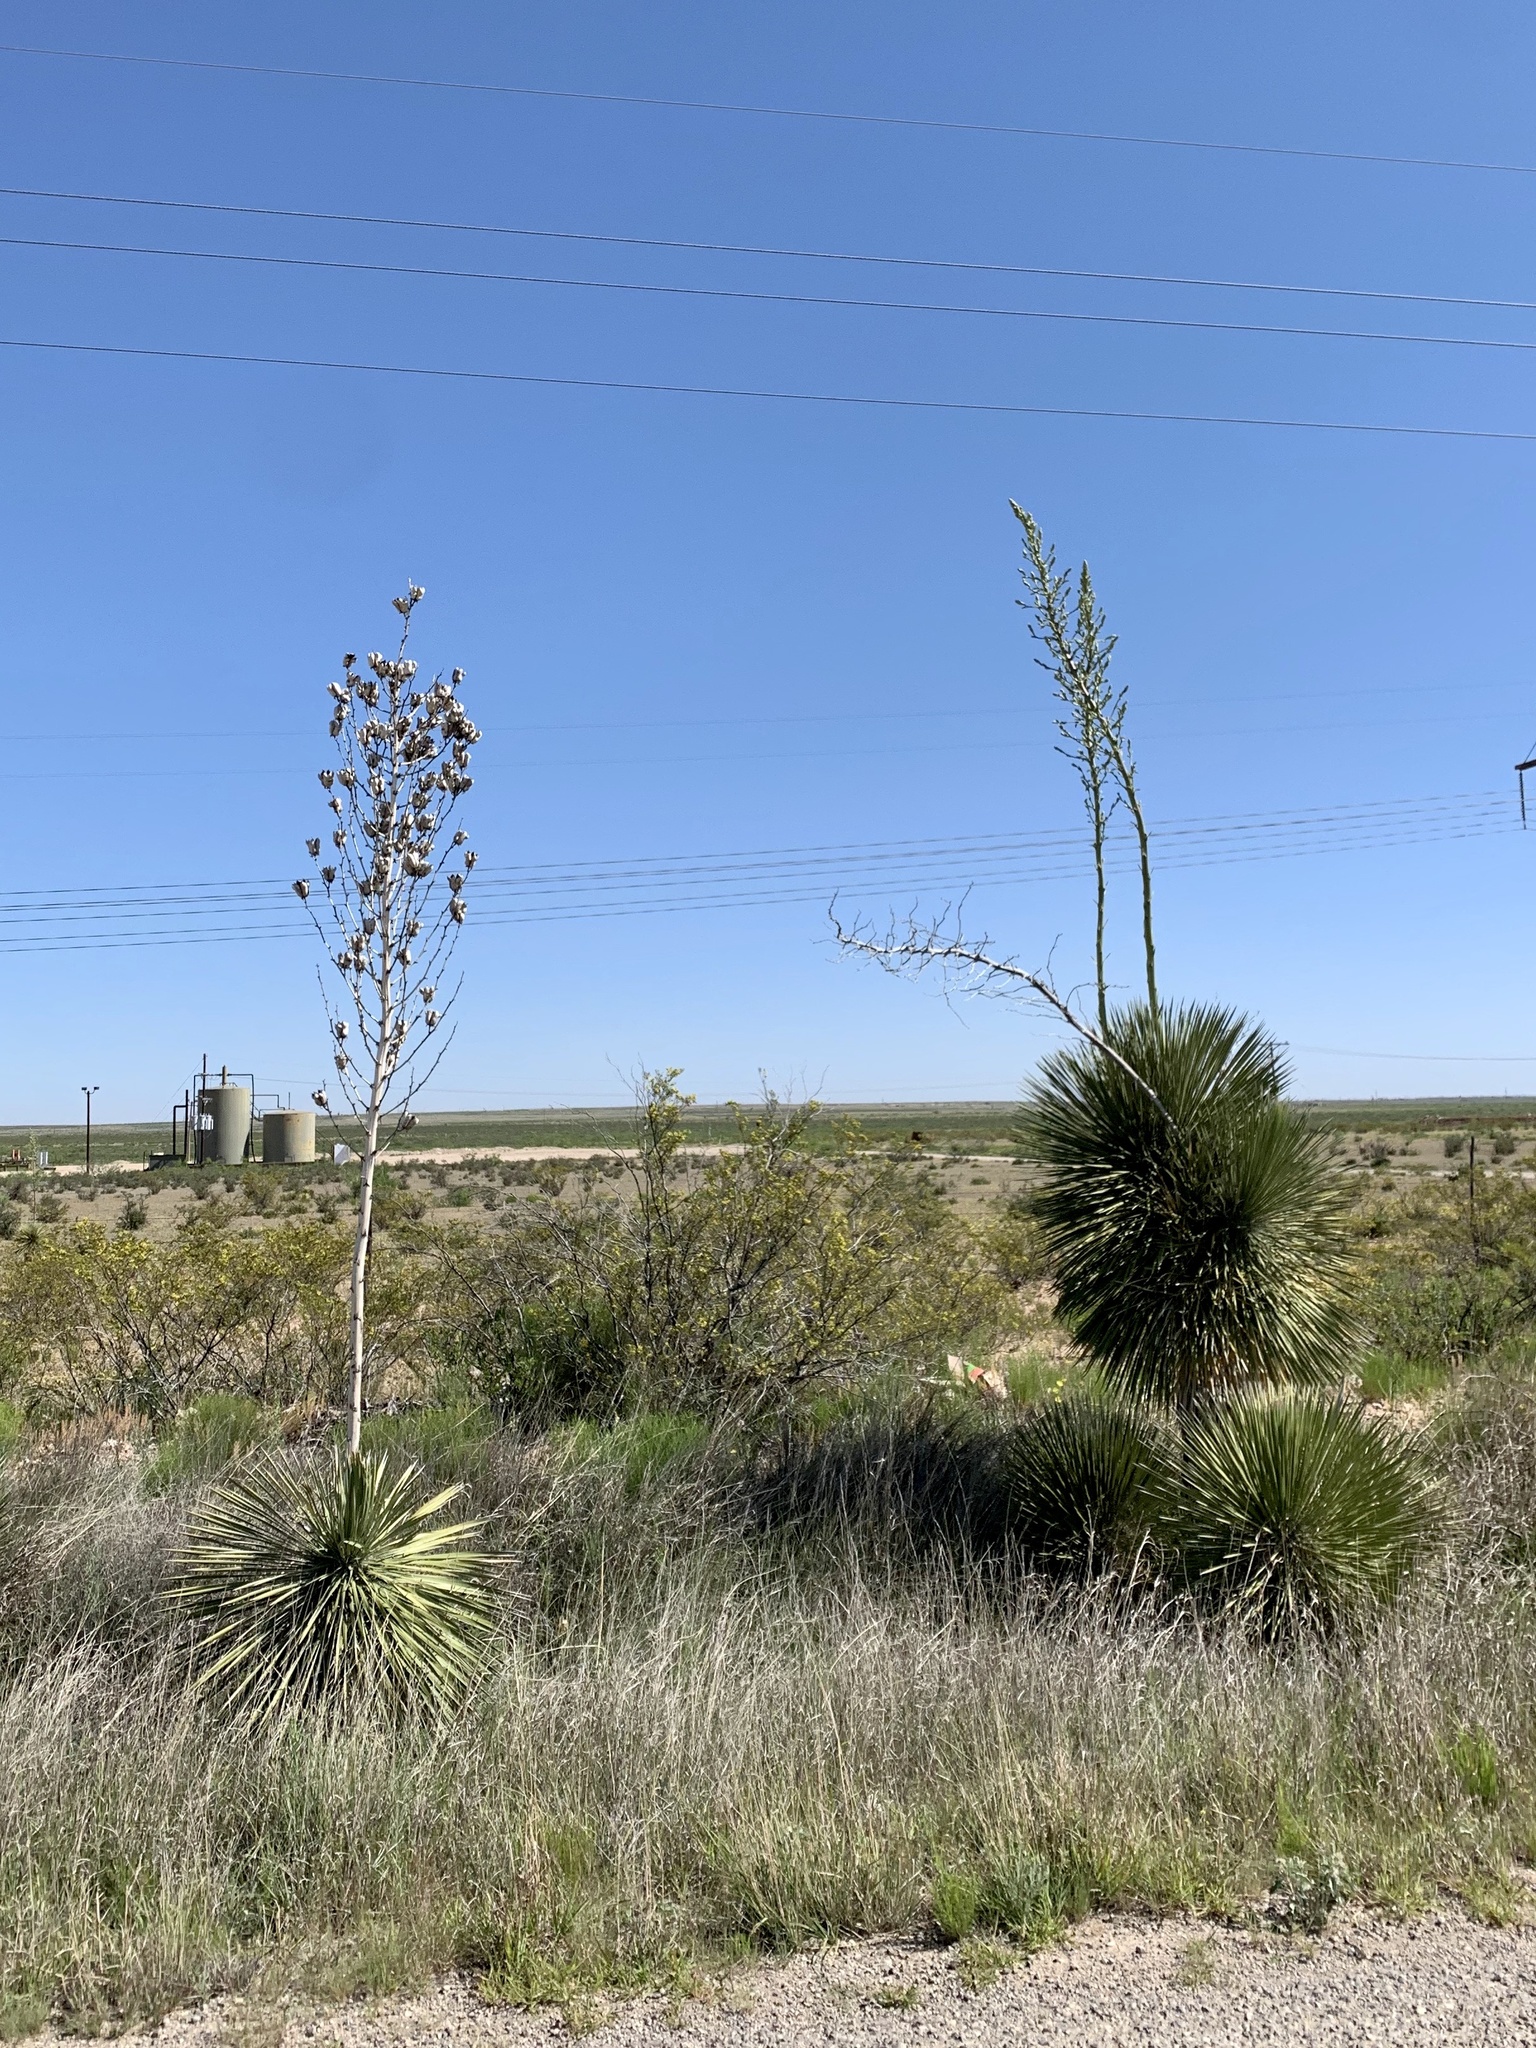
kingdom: Plantae
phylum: Tracheophyta
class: Liliopsida
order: Asparagales
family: Asparagaceae
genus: Yucca
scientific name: Yucca elata
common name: Palmella
